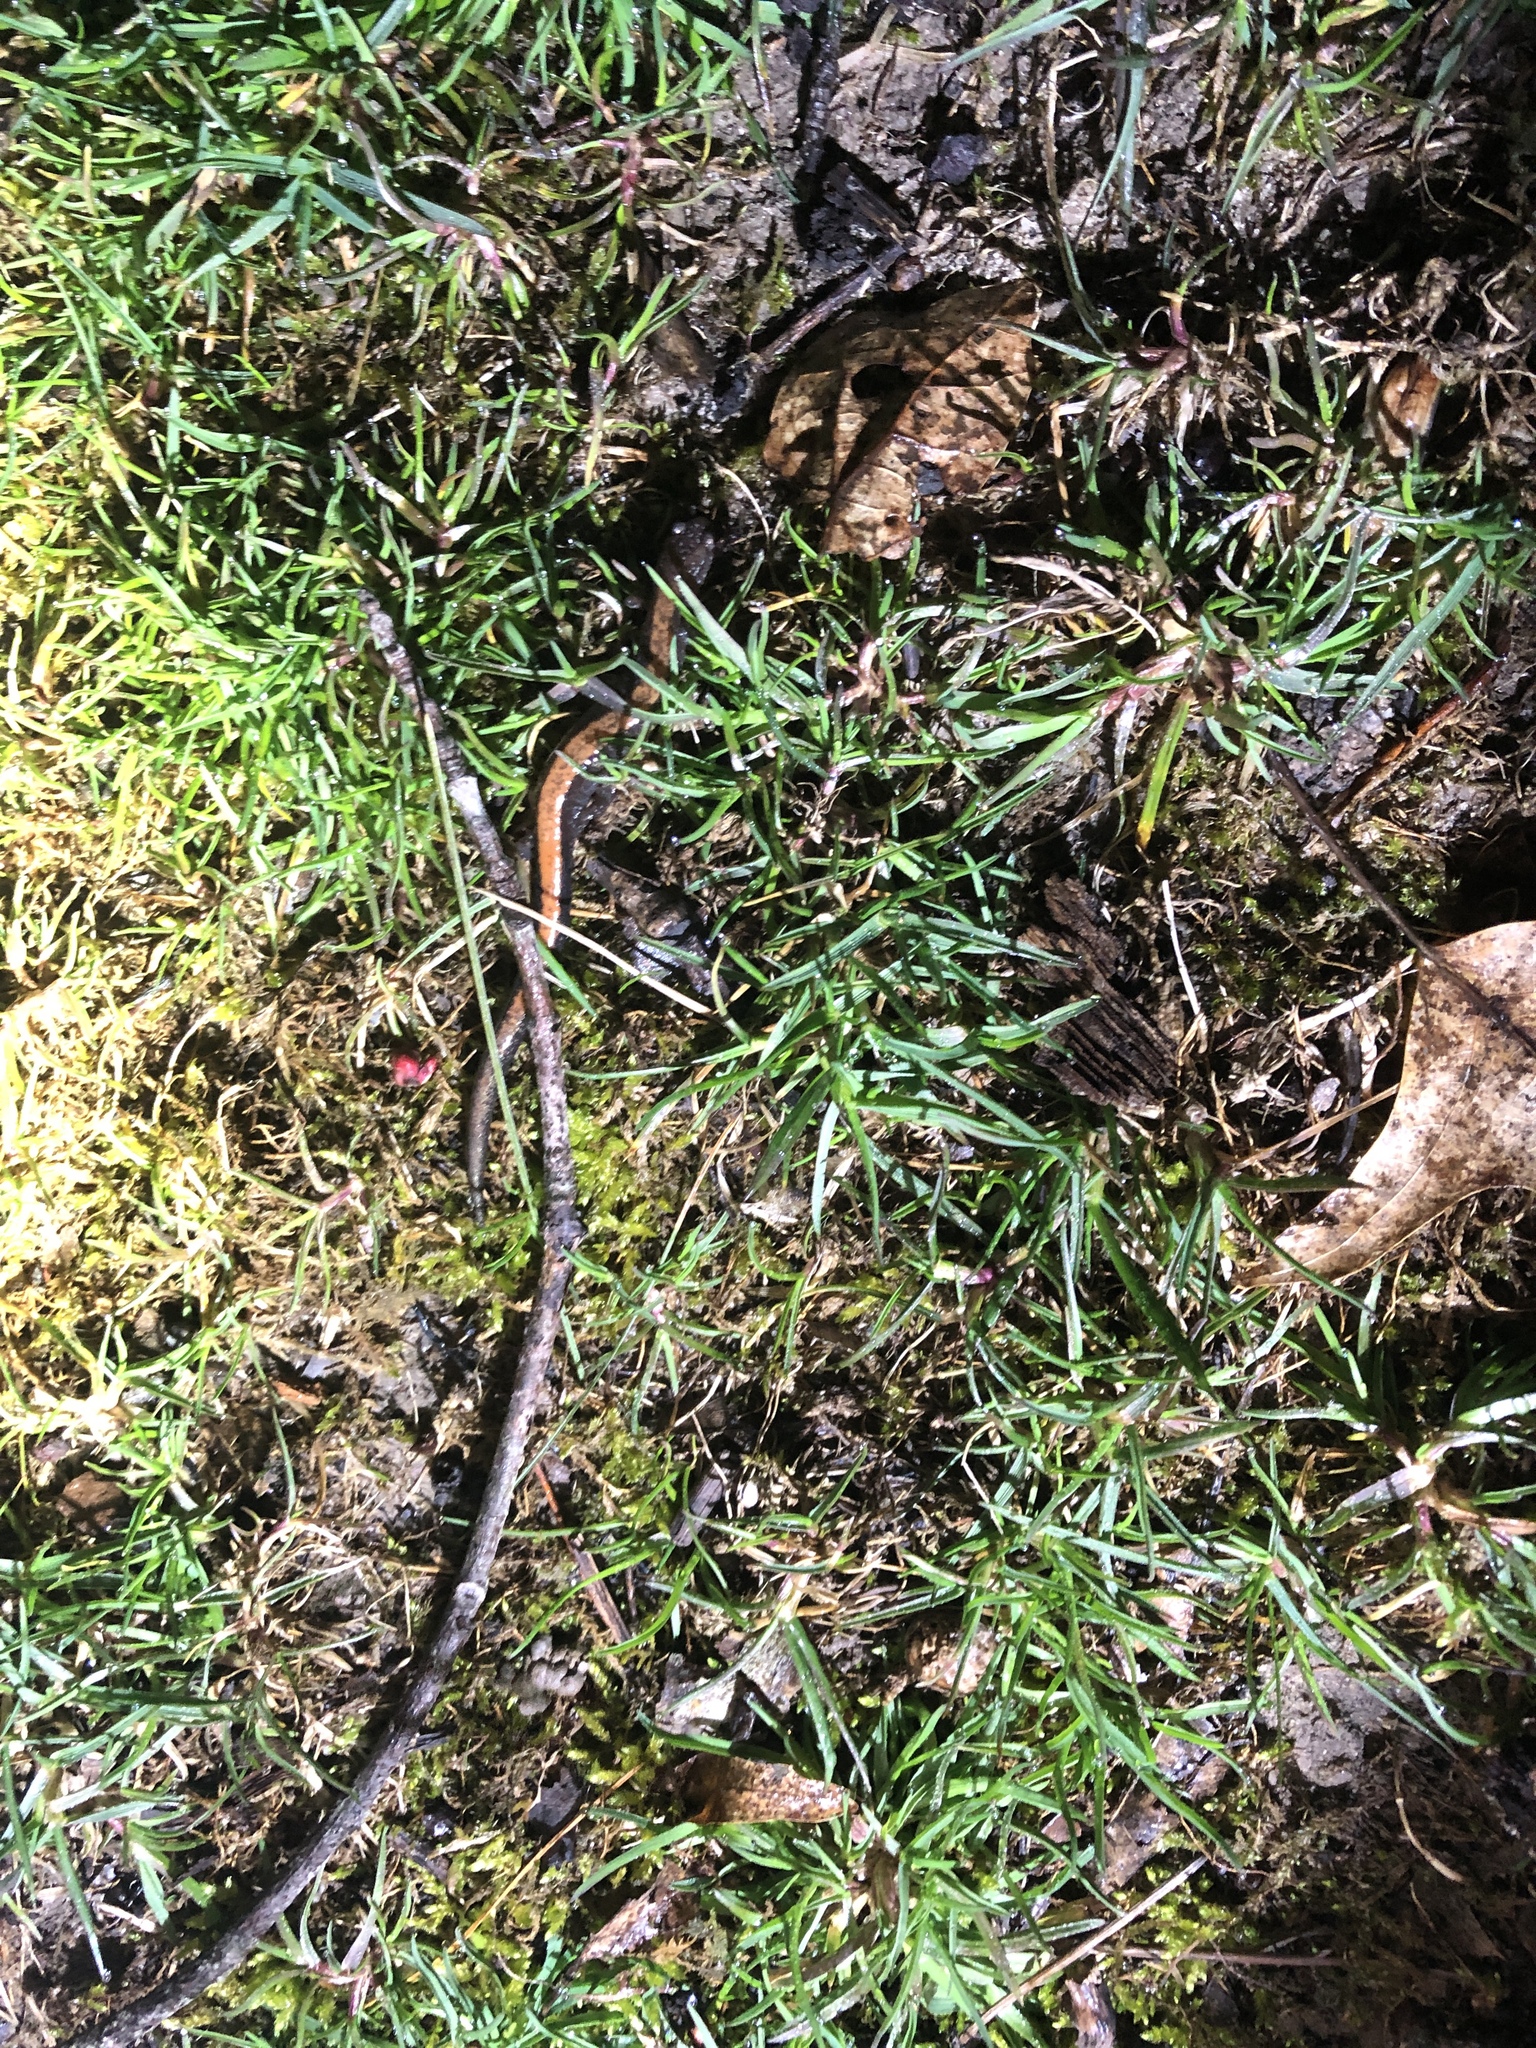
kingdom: Animalia
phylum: Chordata
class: Amphibia
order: Caudata
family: Plethodontidae
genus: Plethodon
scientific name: Plethodon cinereus
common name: Redback salamander
